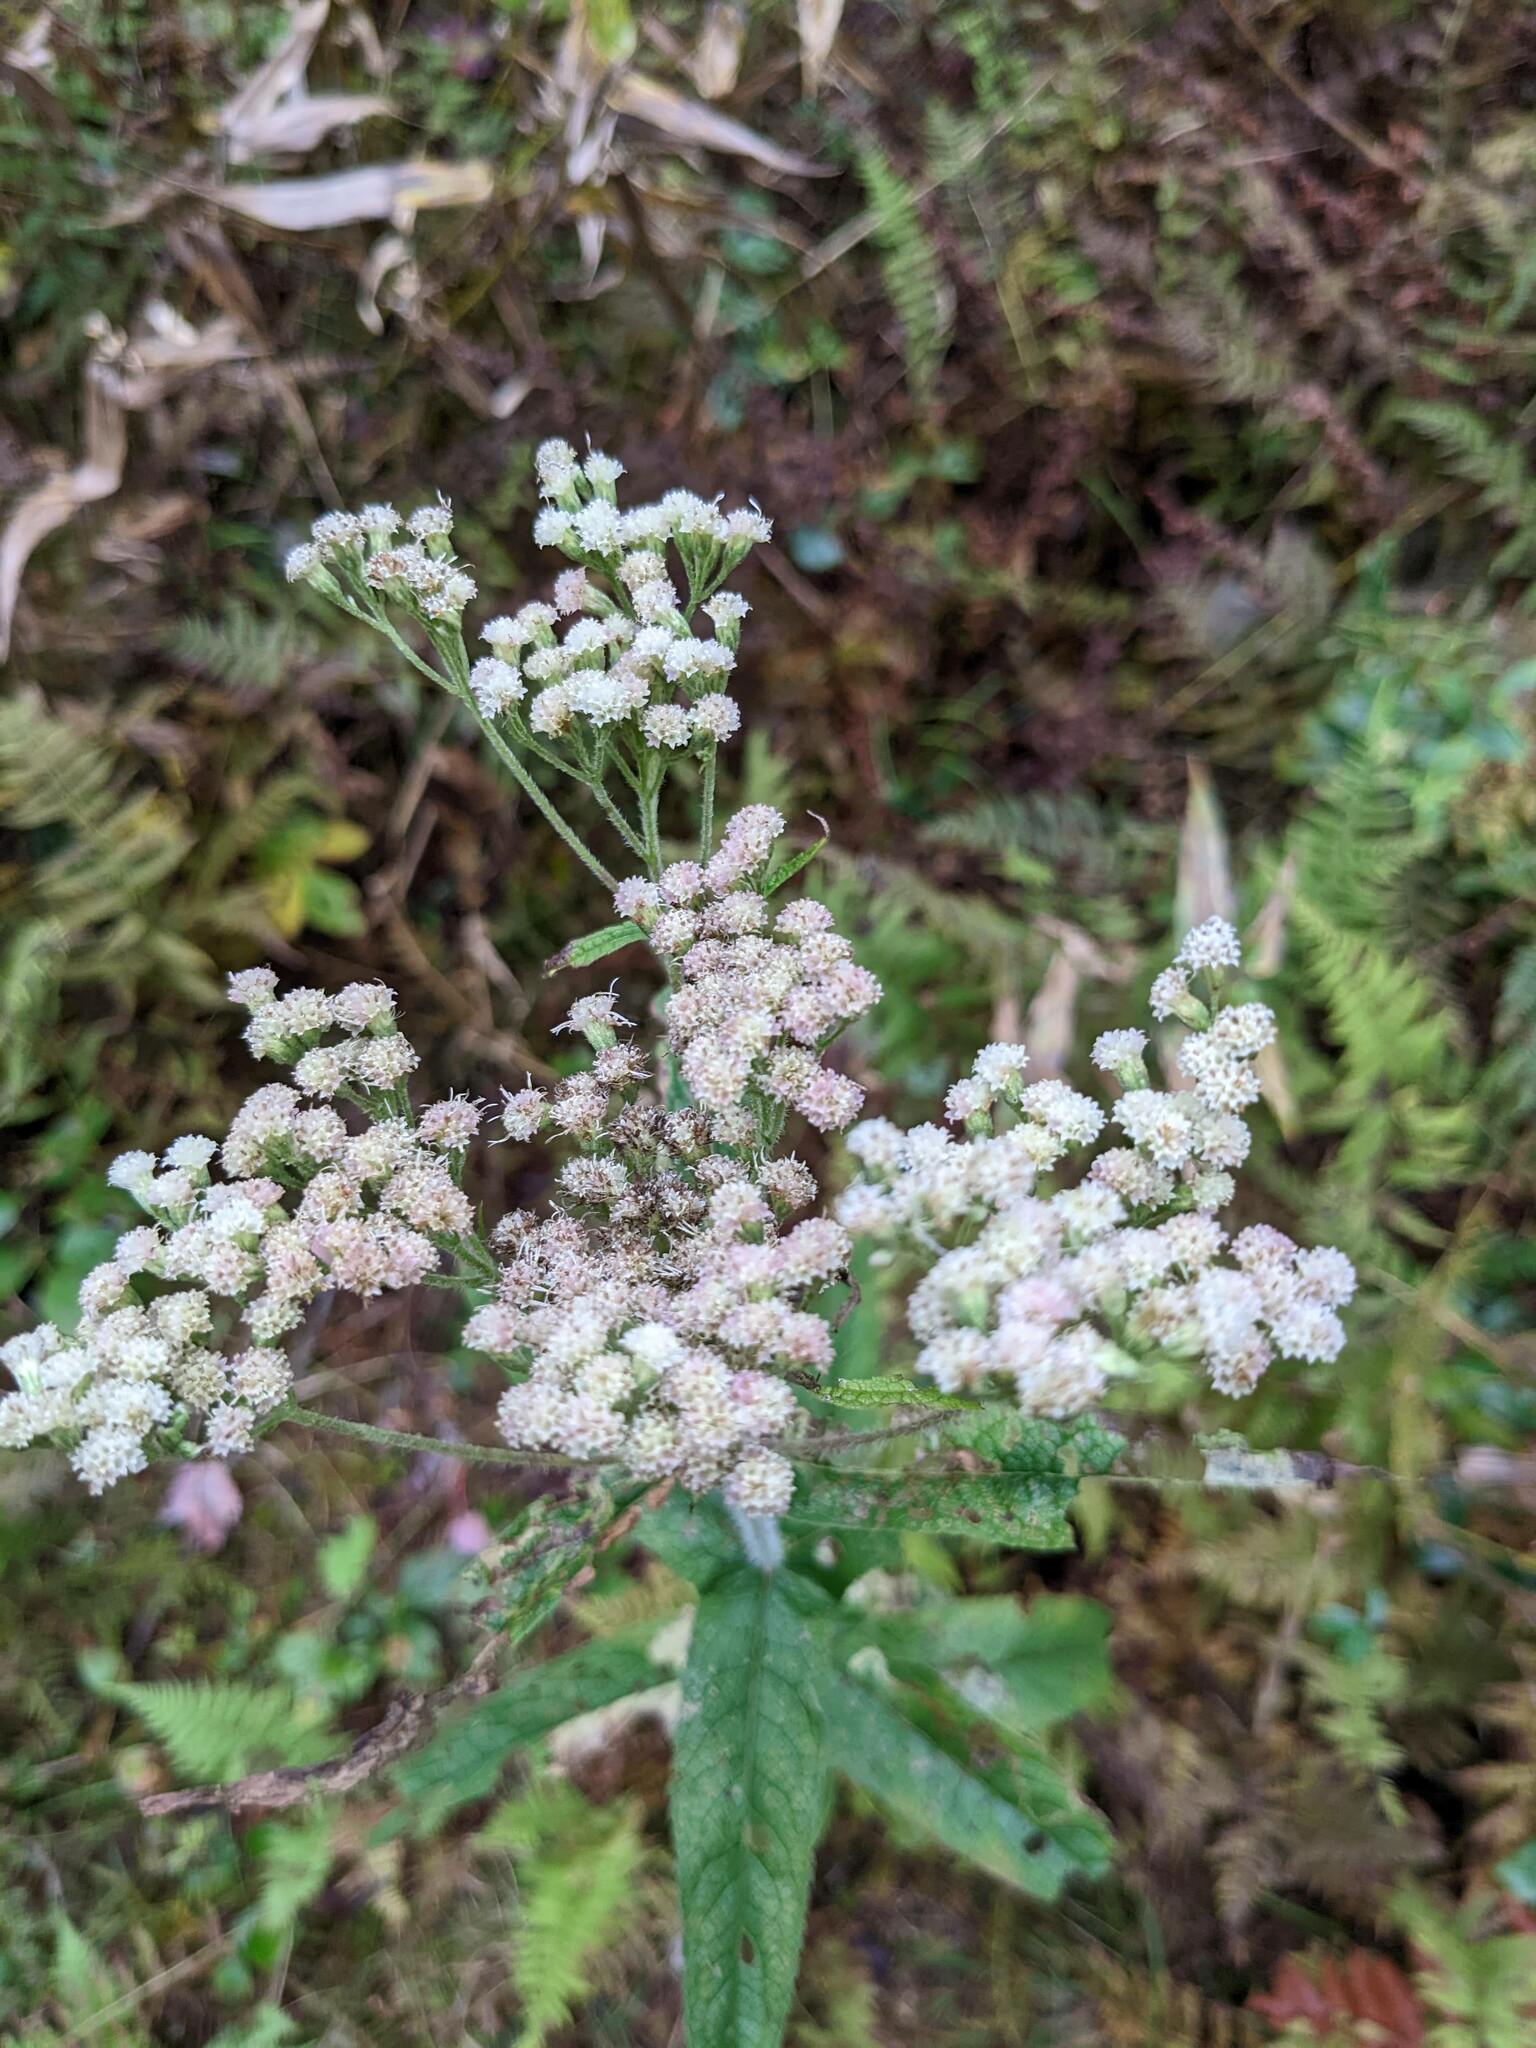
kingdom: Plantae
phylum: Tracheophyta
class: Magnoliopsida
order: Asterales
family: Asteraceae
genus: Eupatorium
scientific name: Eupatorium perfoliatum
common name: Boneset
